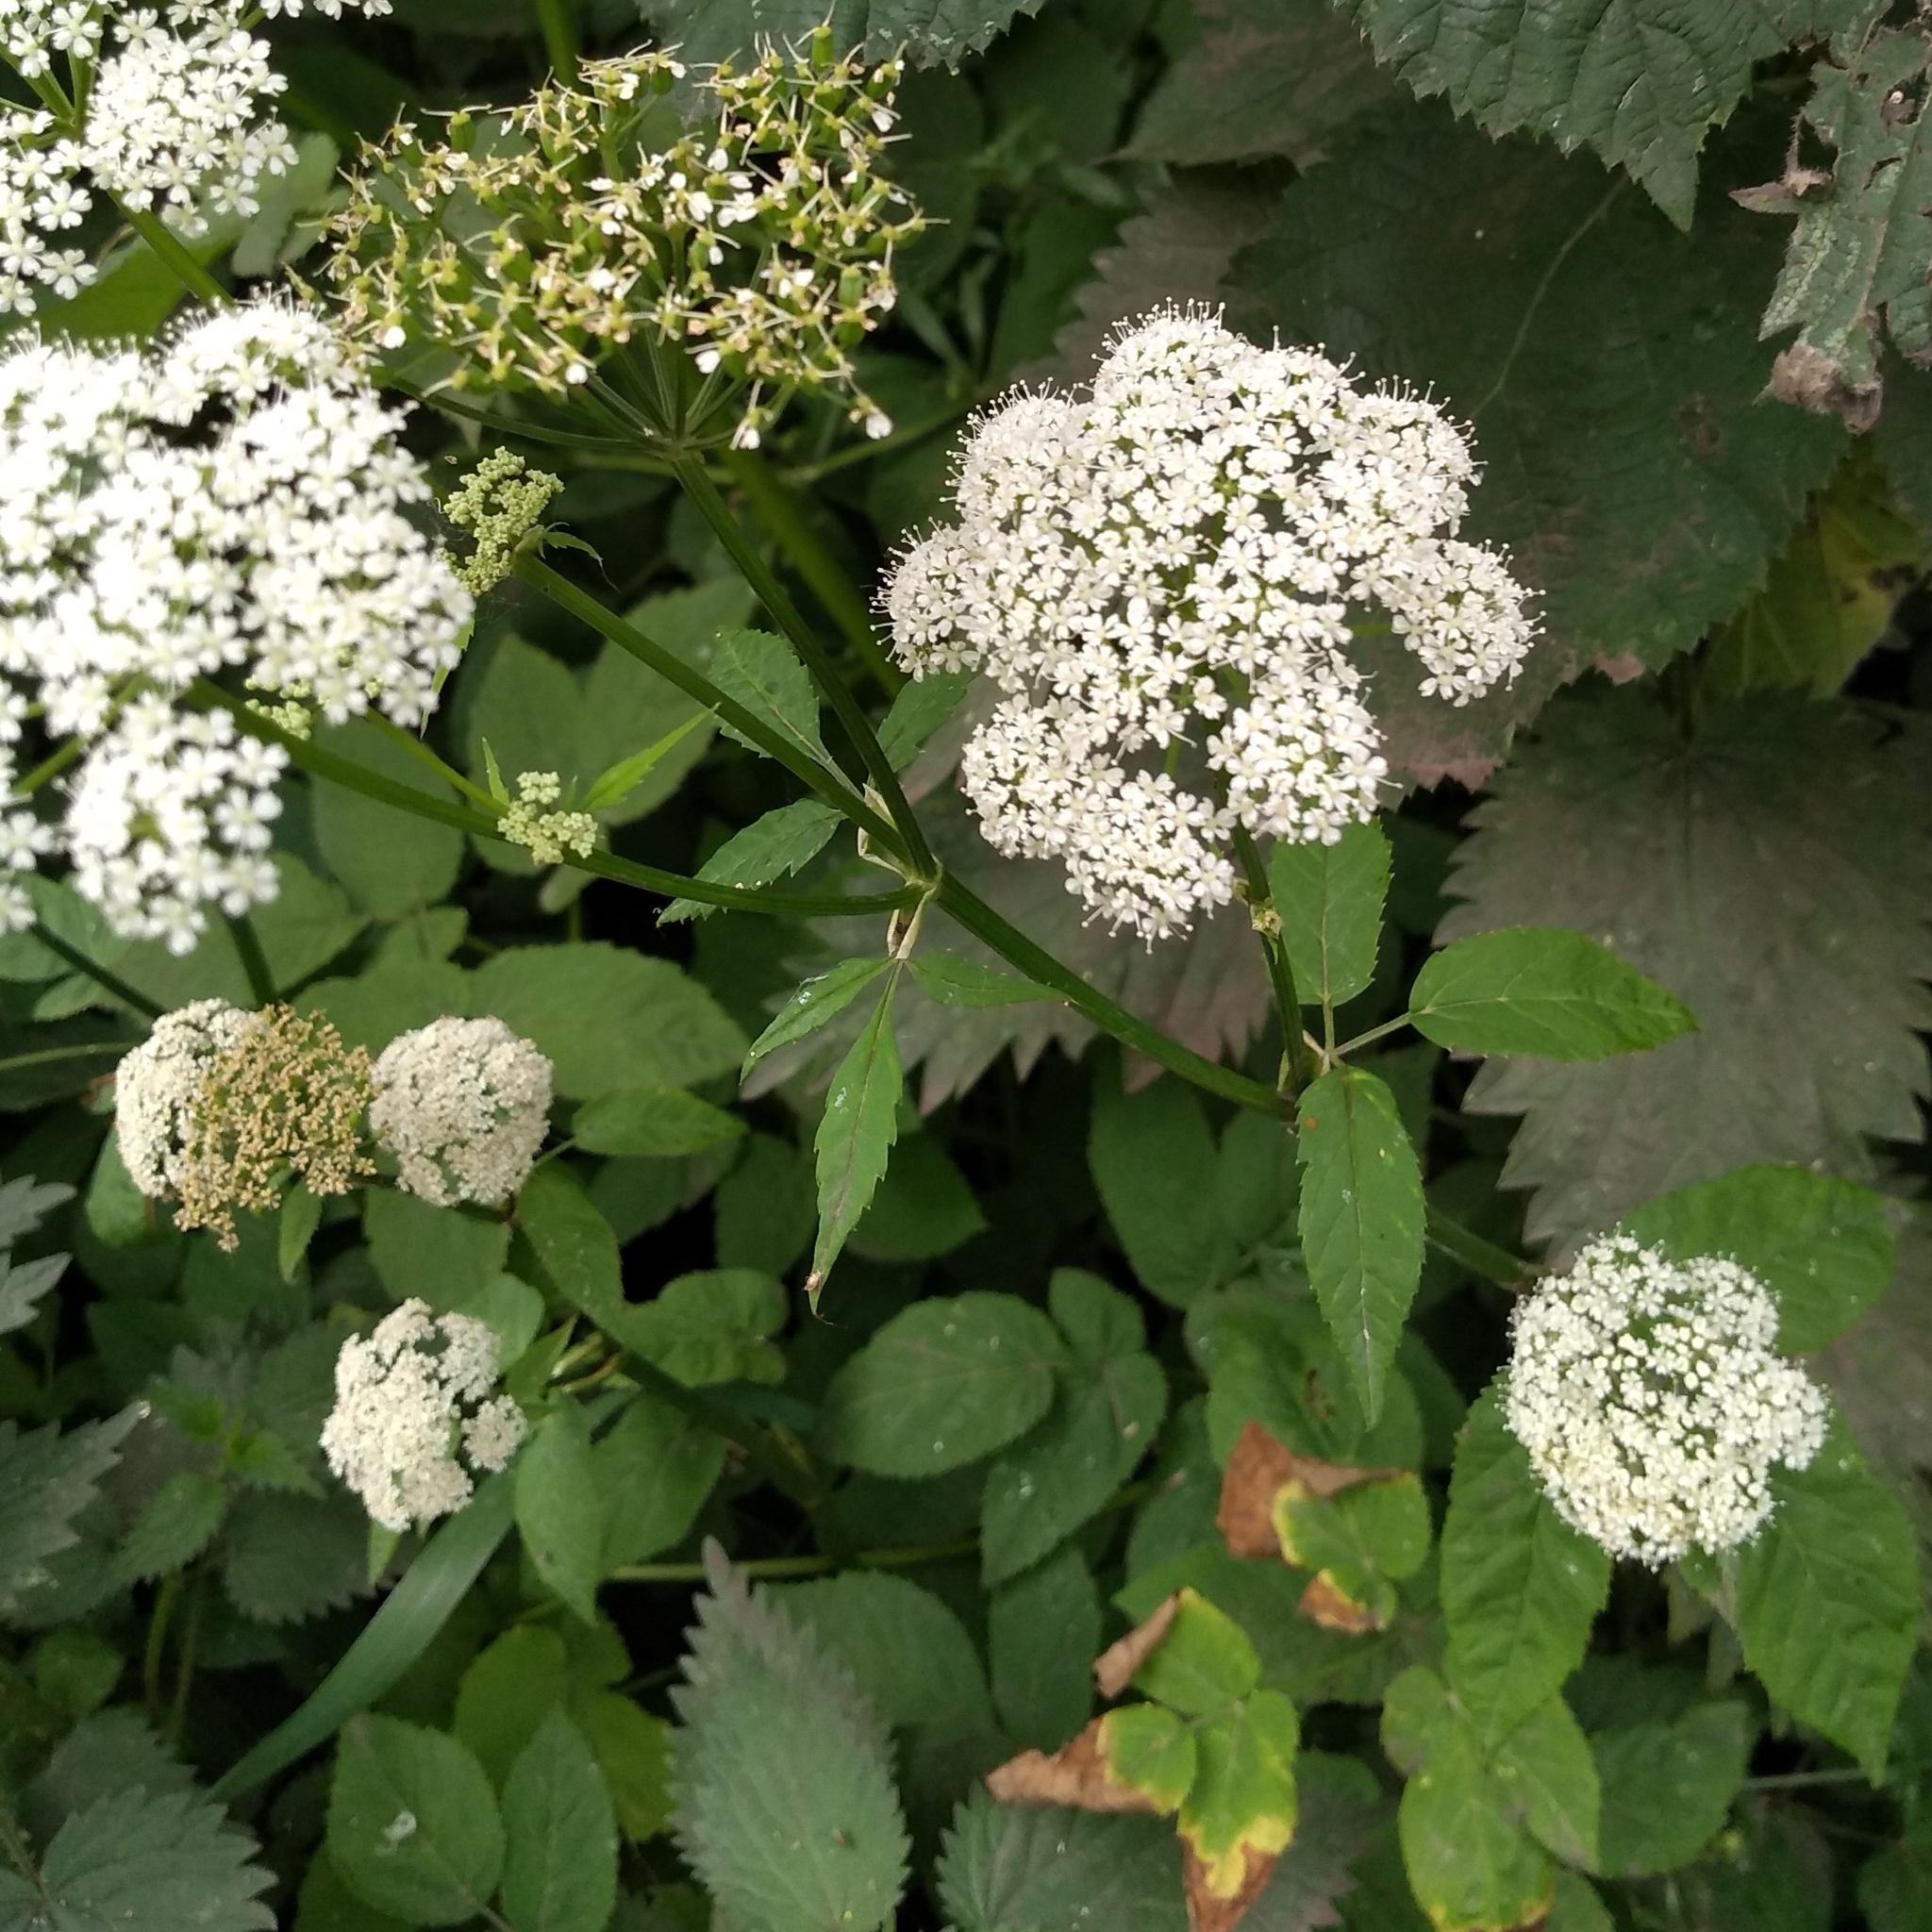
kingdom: Plantae
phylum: Tracheophyta
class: Magnoliopsida
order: Apiales
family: Apiaceae
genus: Aegopodium
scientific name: Aegopodium podagraria
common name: Ground-elder
